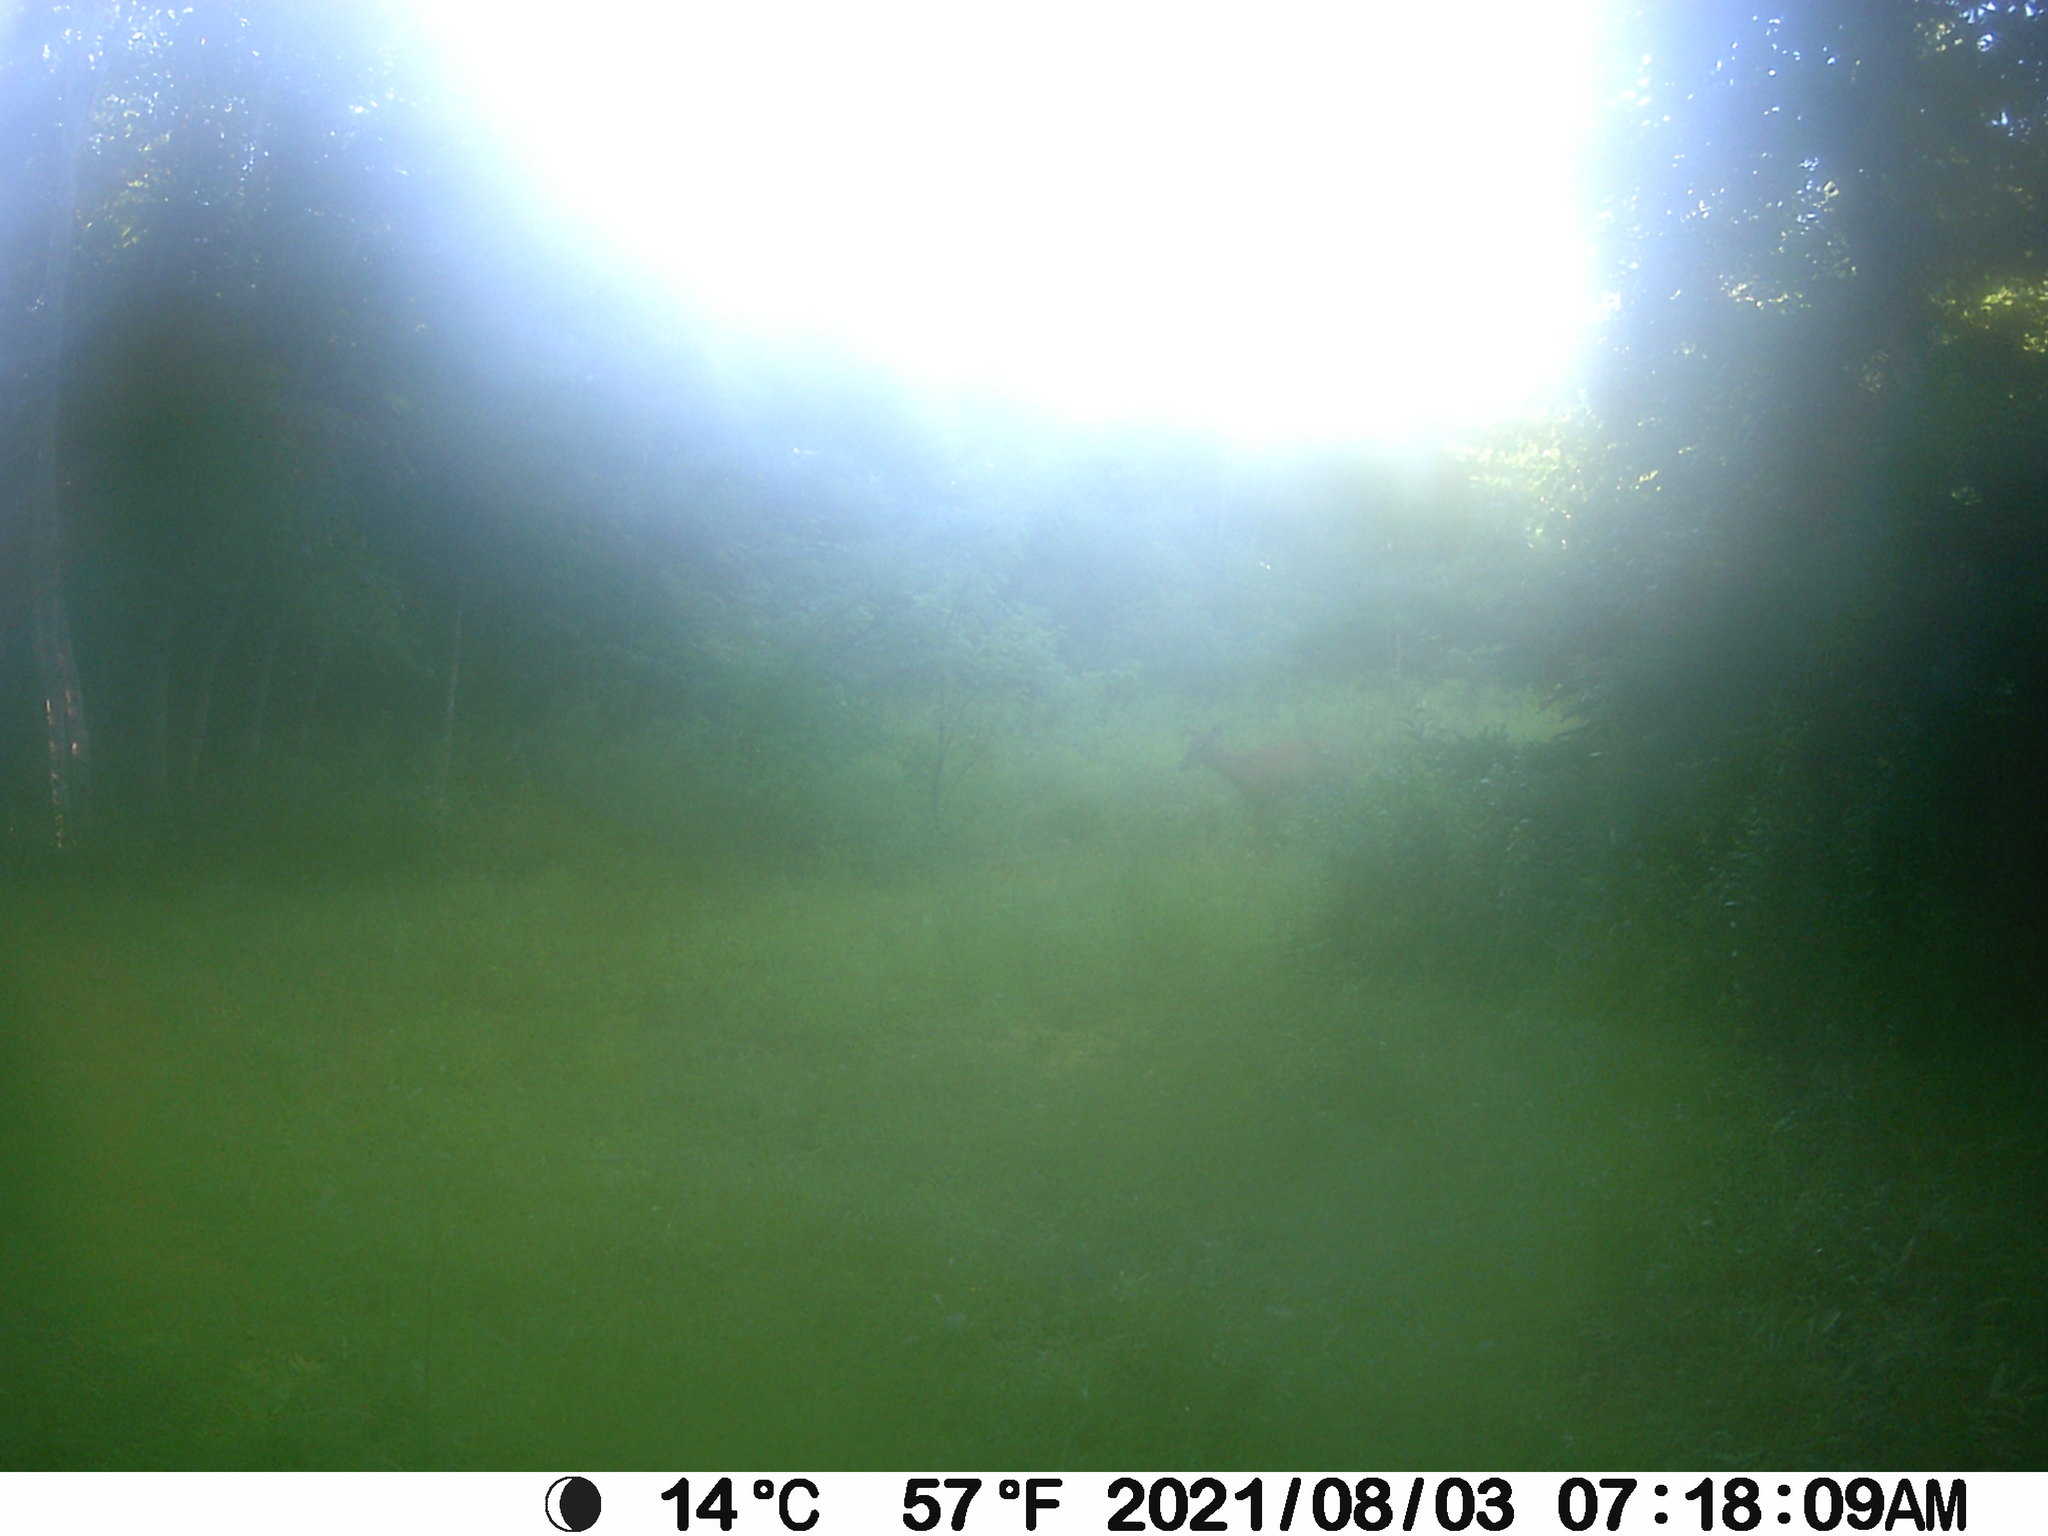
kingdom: Animalia
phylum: Chordata
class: Mammalia
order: Artiodactyla
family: Cervidae
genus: Odocoileus
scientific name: Odocoileus virginianus
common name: White-tailed deer
